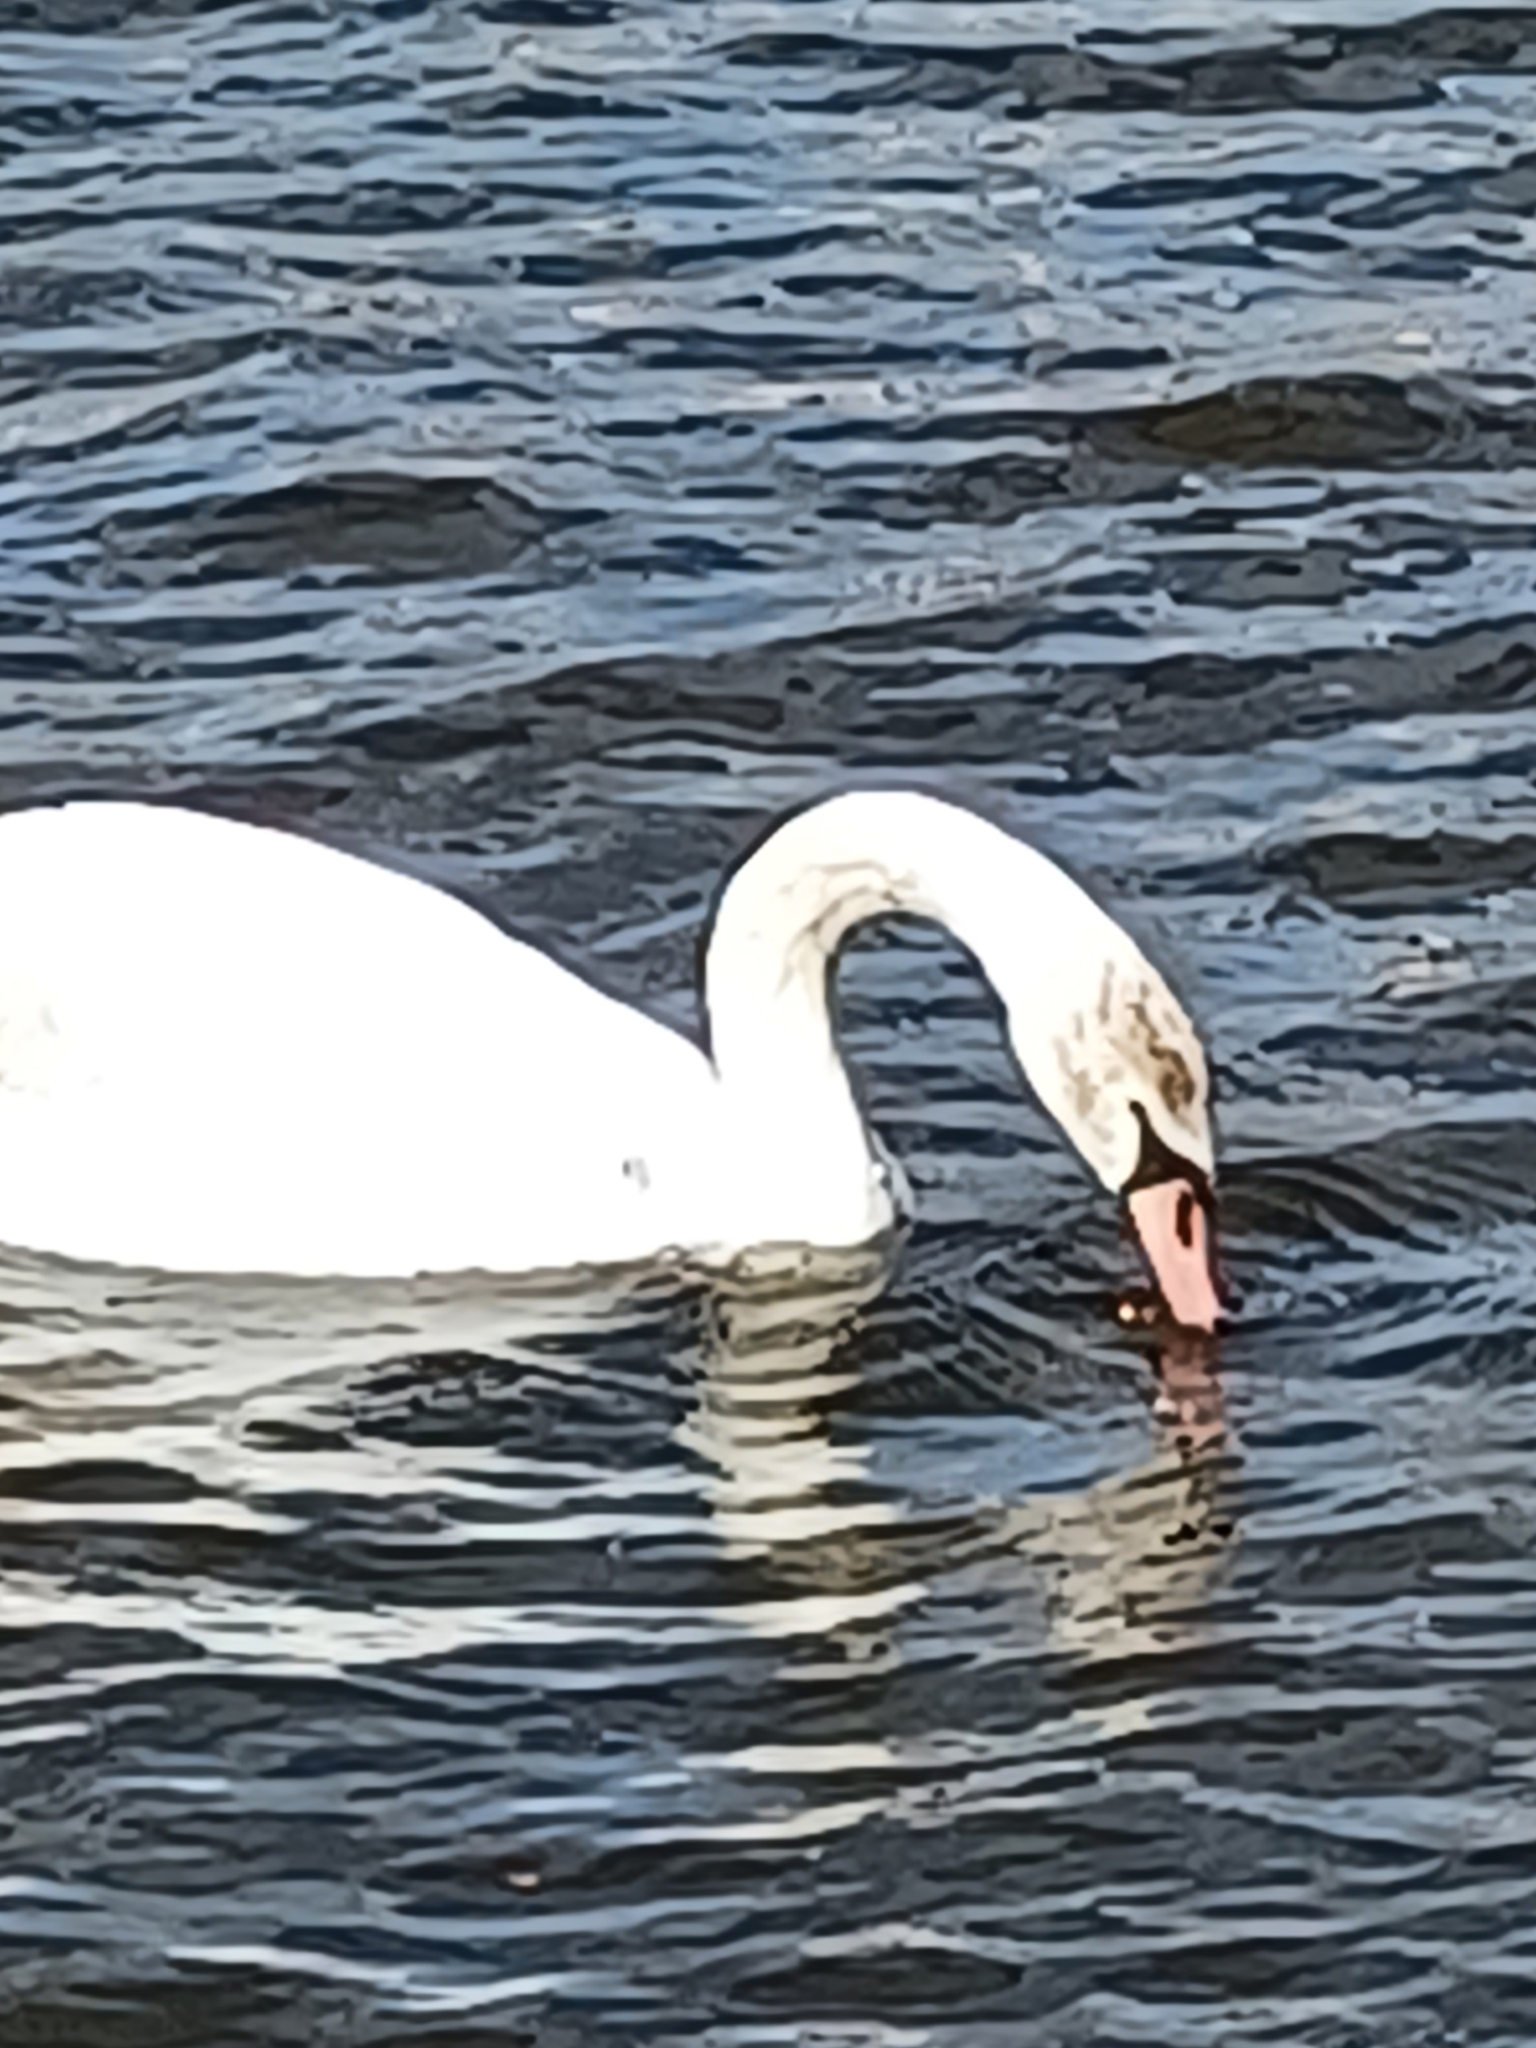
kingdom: Animalia
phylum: Chordata
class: Aves
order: Anseriformes
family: Anatidae
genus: Cygnus
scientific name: Cygnus olor
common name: Mute swan
